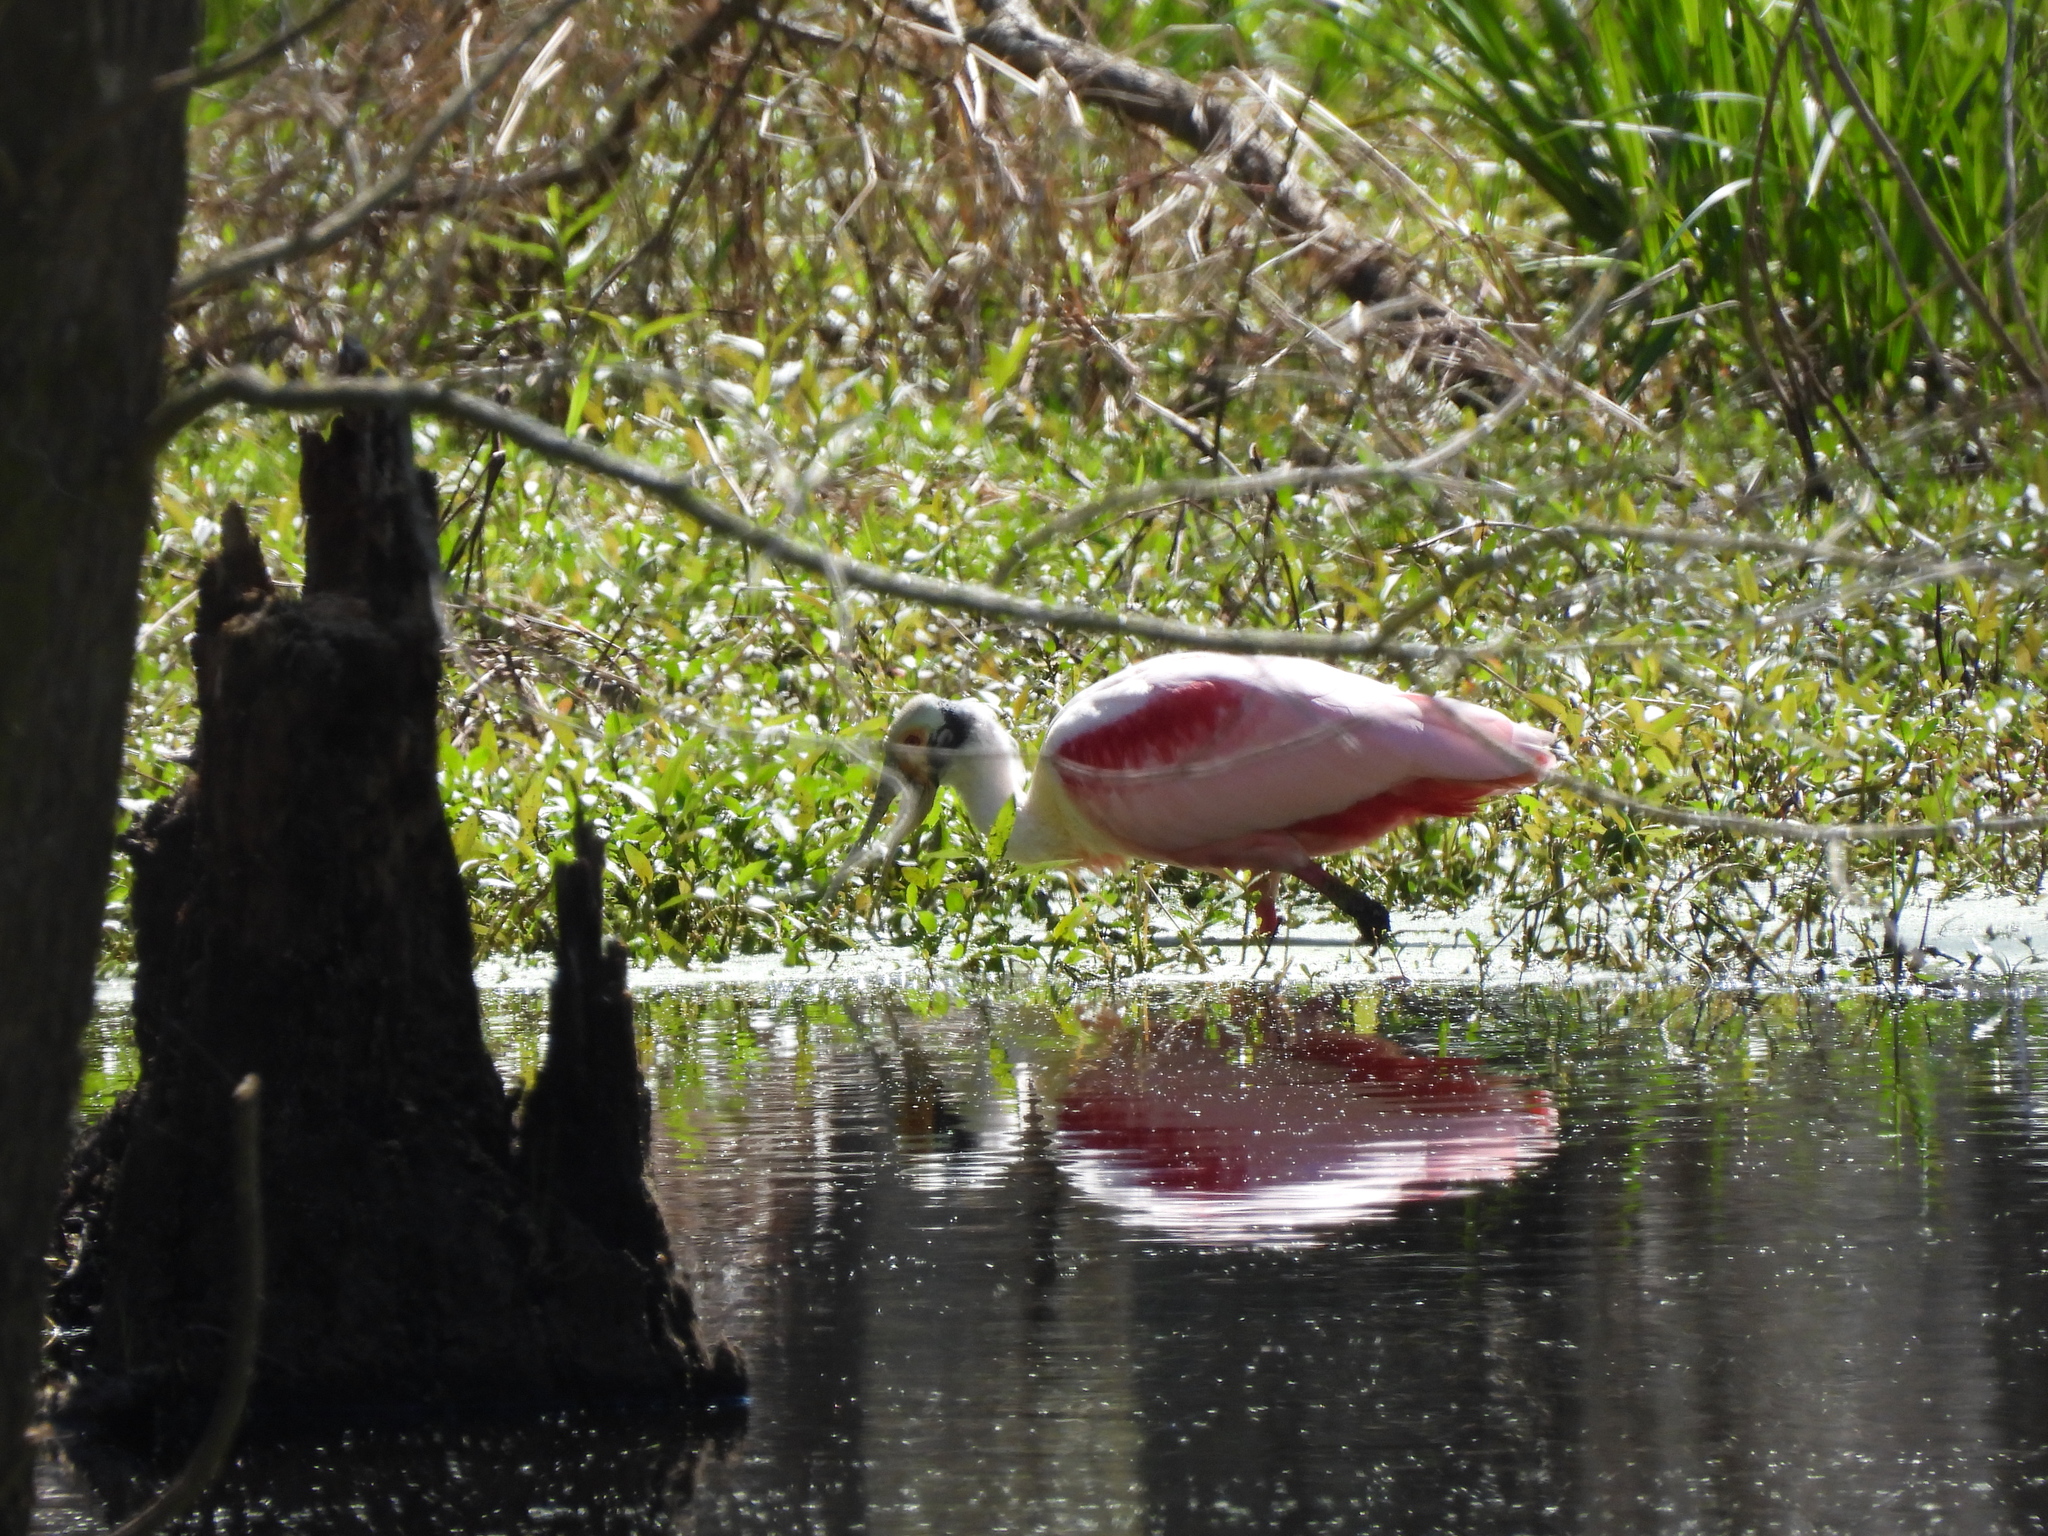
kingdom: Animalia
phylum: Chordata
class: Aves
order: Pelecaniformes
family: Threskiornithidae
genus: Platalea
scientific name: Platalea ajaja
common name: Roseate spoonbill
